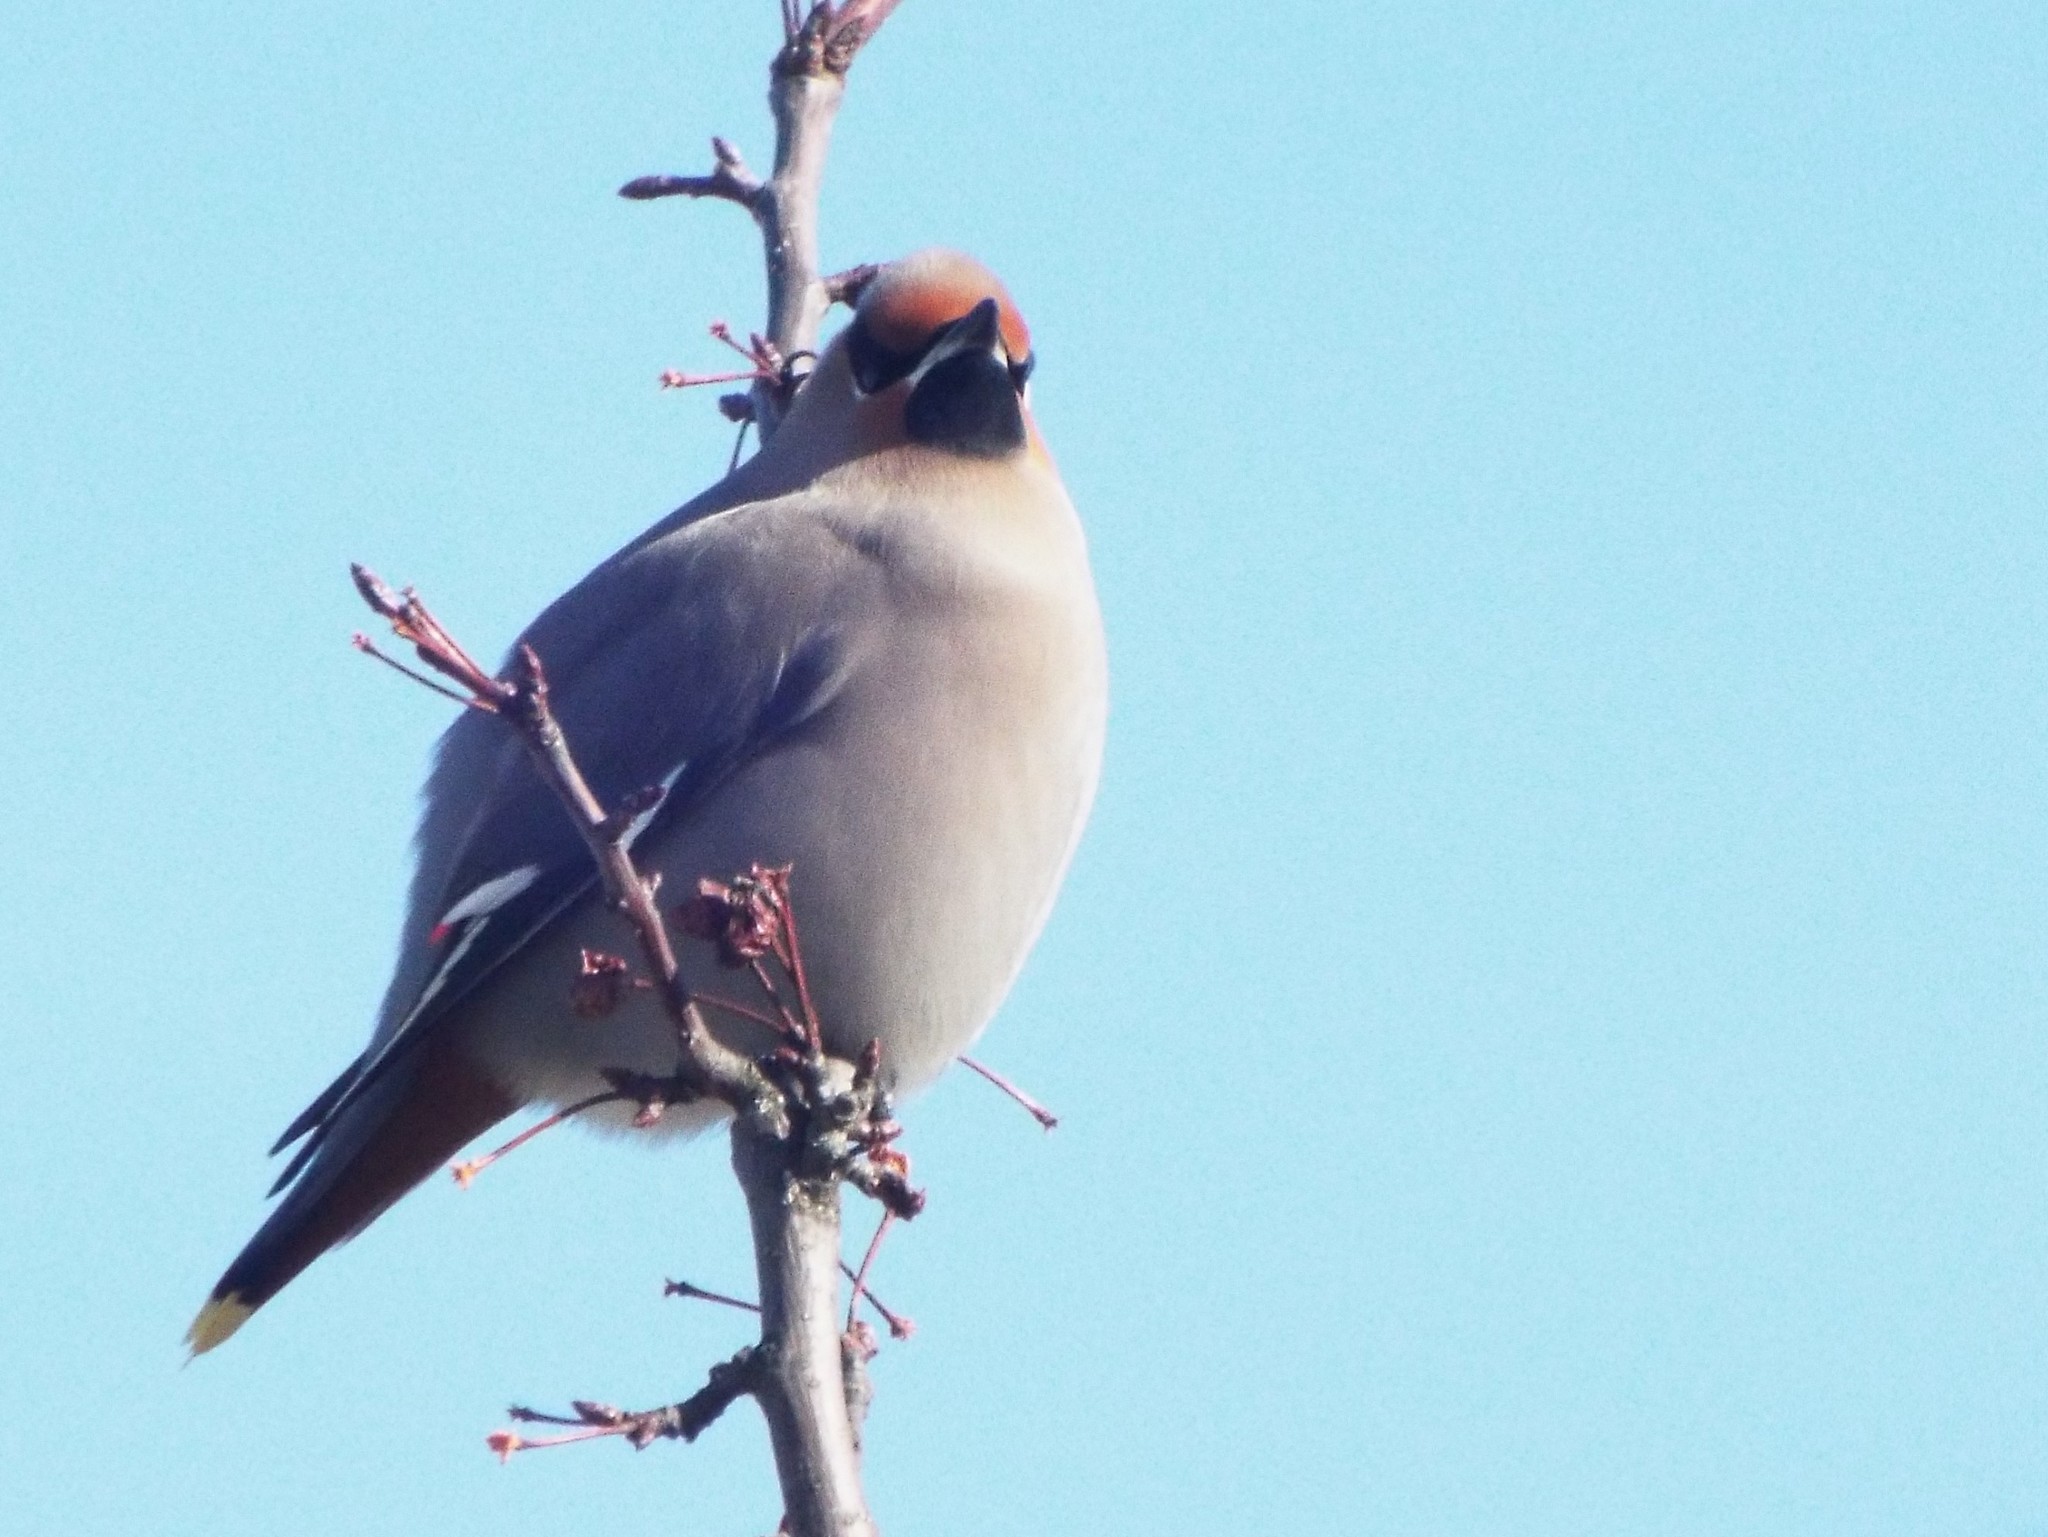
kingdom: Animalia
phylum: Chordata
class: Aves
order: Passeriformes
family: Bombycillidae
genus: Bombycilla
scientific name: Bombycilla garrulus
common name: Bohemian waxwing
